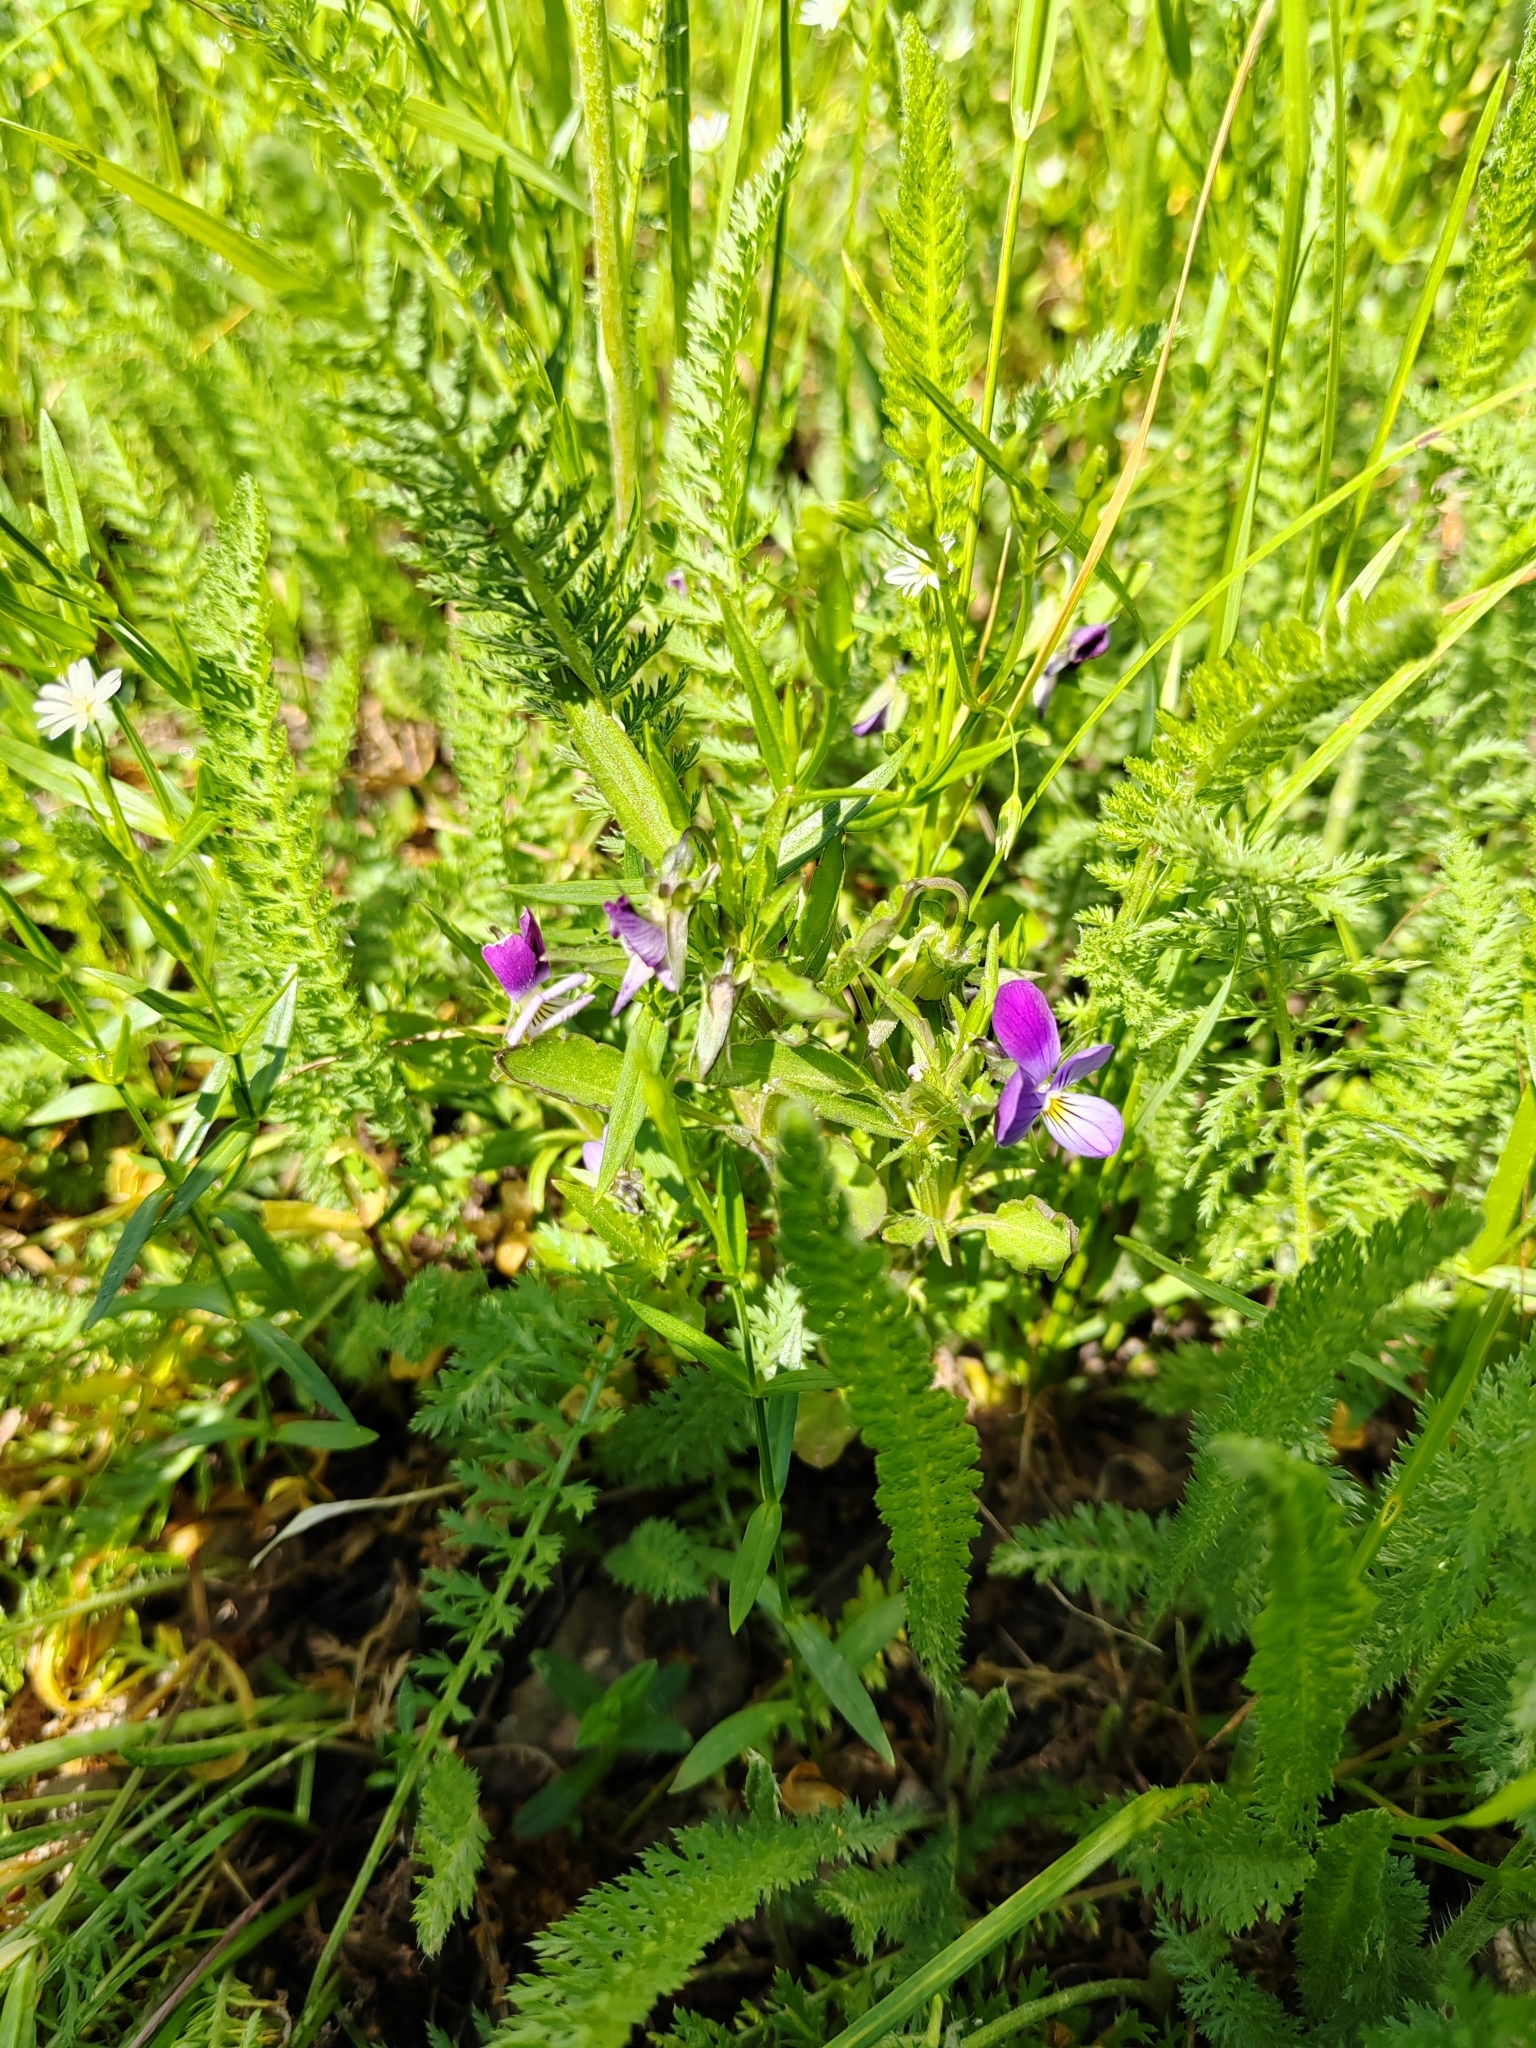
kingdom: Plantae
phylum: Tracheophyta
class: Magnoliopsida
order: Malpighiales
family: Violaceae
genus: Viola
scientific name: Viola tricolor
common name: Pansy
